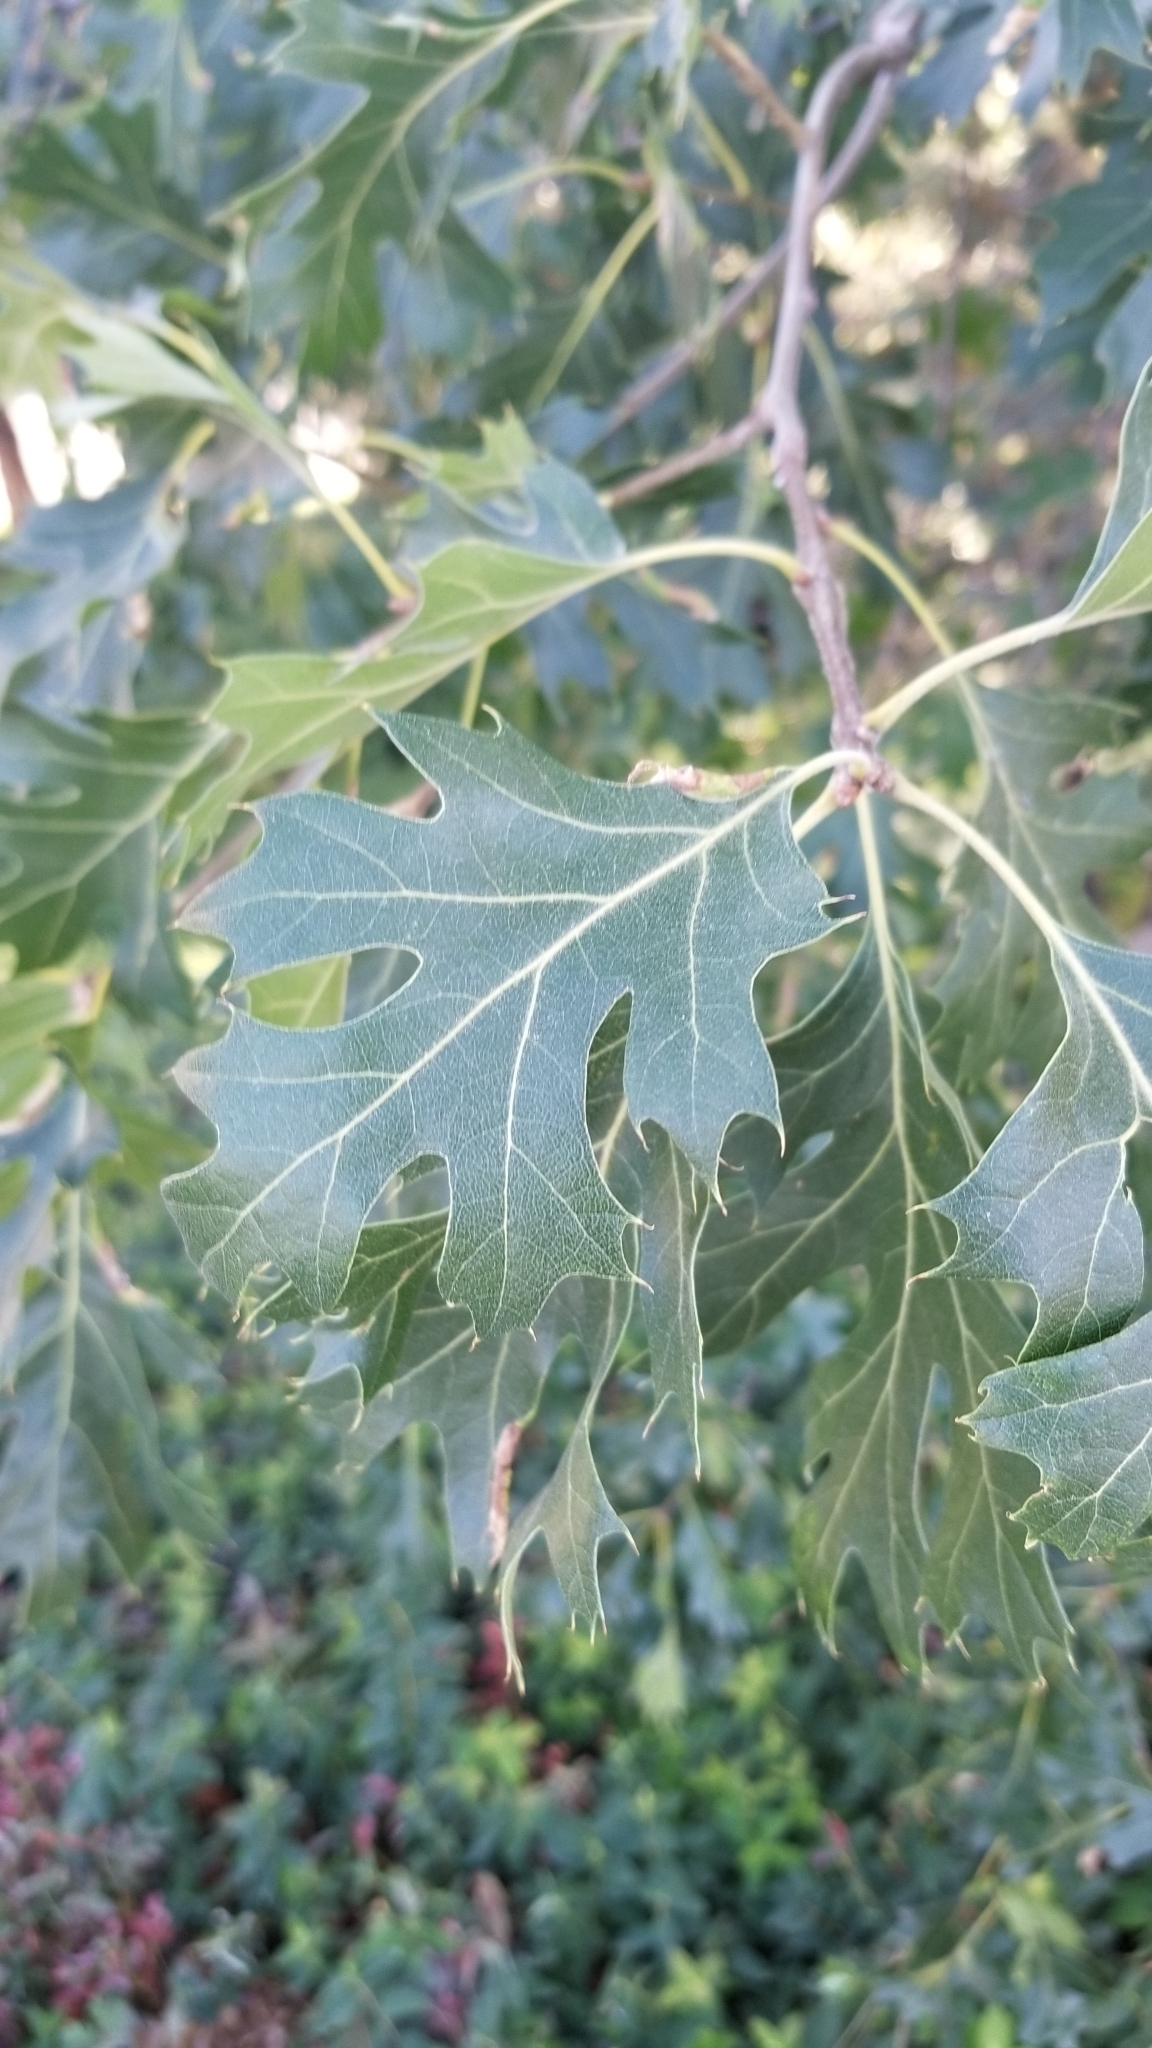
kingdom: Plantae
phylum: Tracheophyta
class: Magnoliopsida
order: Fagales
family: Fagaceae
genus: Quercus
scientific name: Quercus kelloggii
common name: California black oak
